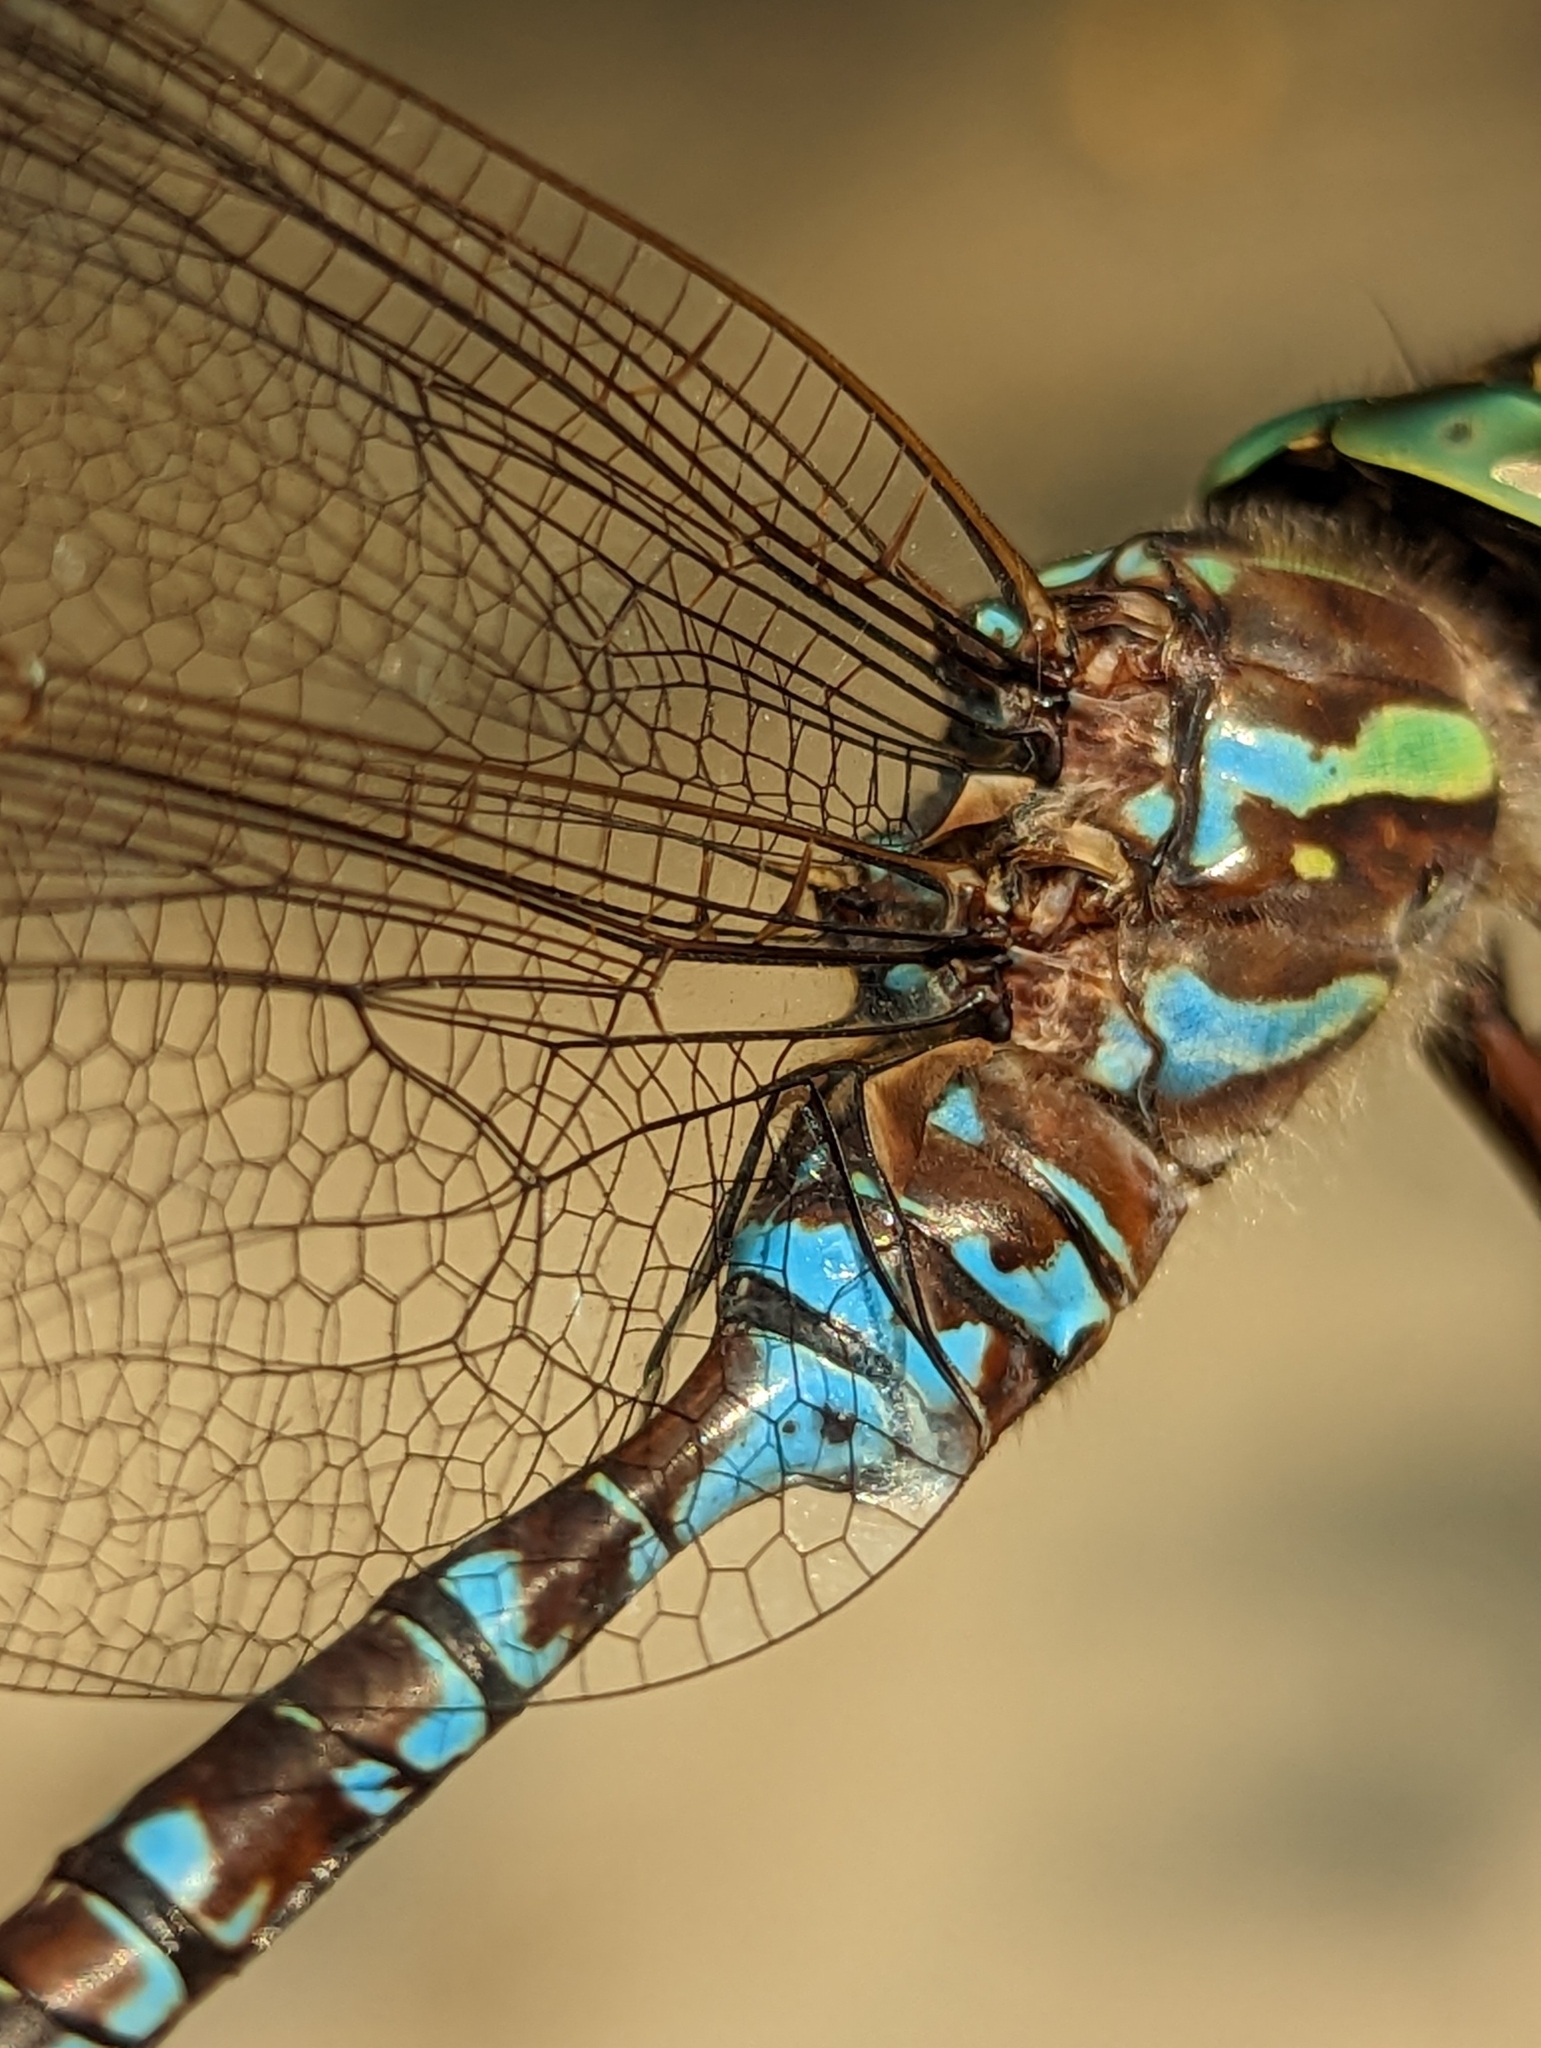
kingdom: Animalia
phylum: Arthropoda
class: Insecta
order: Odonata
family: Aeshnidae
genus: Aeshna
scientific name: Aeshna canadensis
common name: Canada darner
